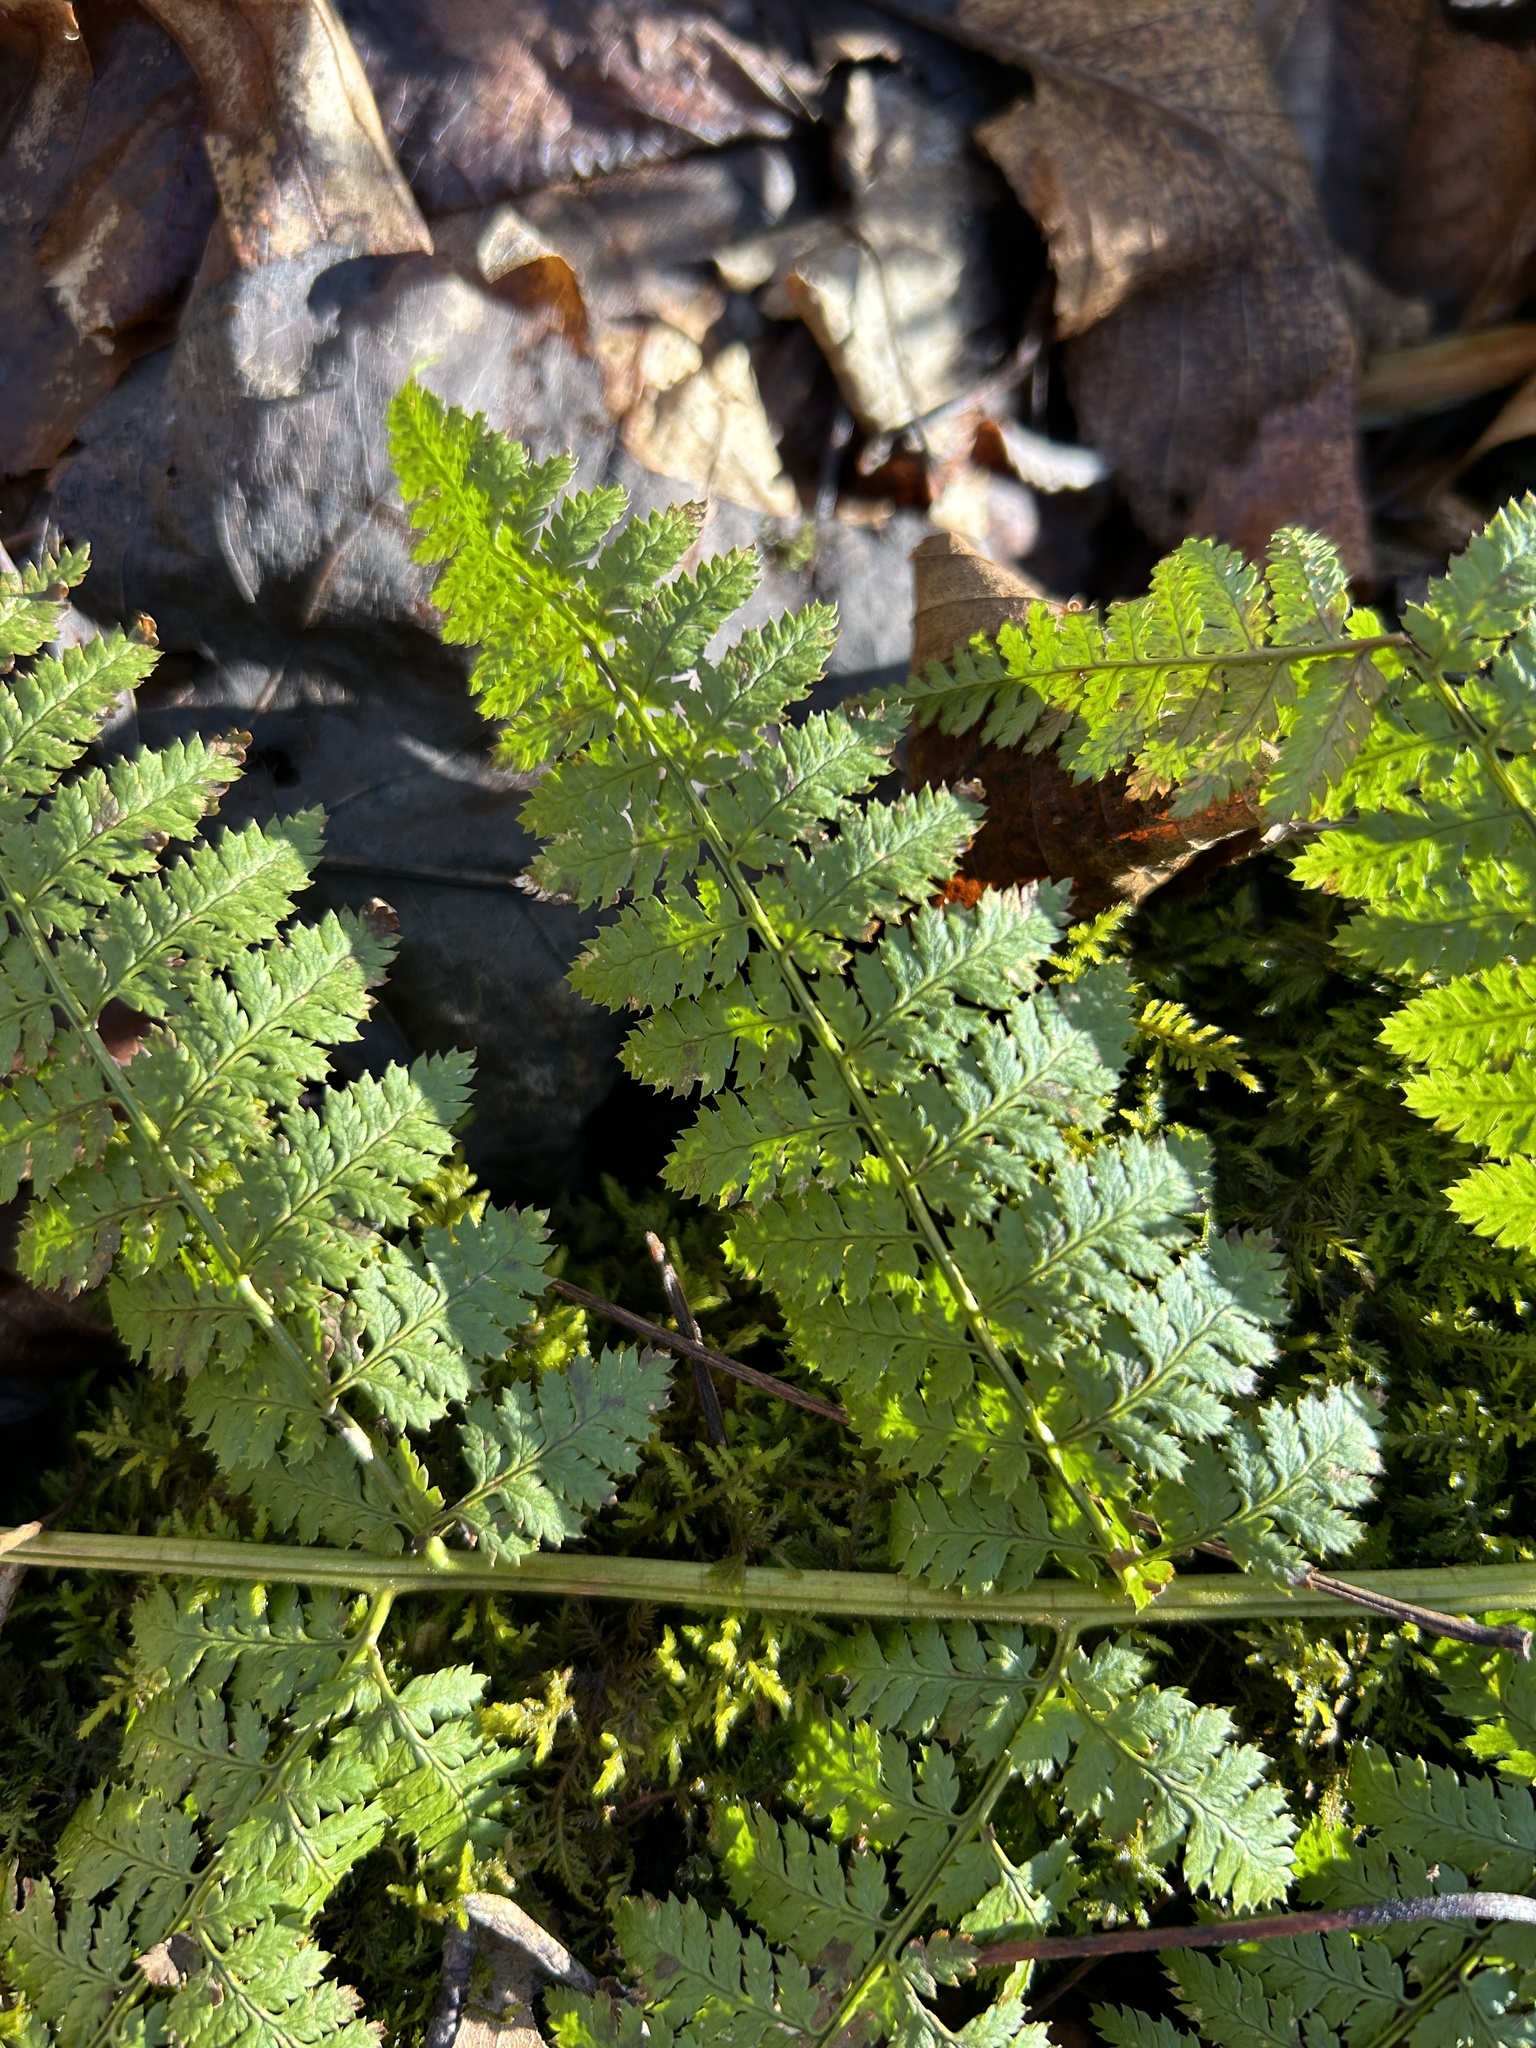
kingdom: Plantae
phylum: Tracheophyta
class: Polypodiopsida
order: Polypodiales
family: Dryopteridaceae
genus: Dryopteris
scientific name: Dryopteris intermedia
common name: Evergreen wood fern
